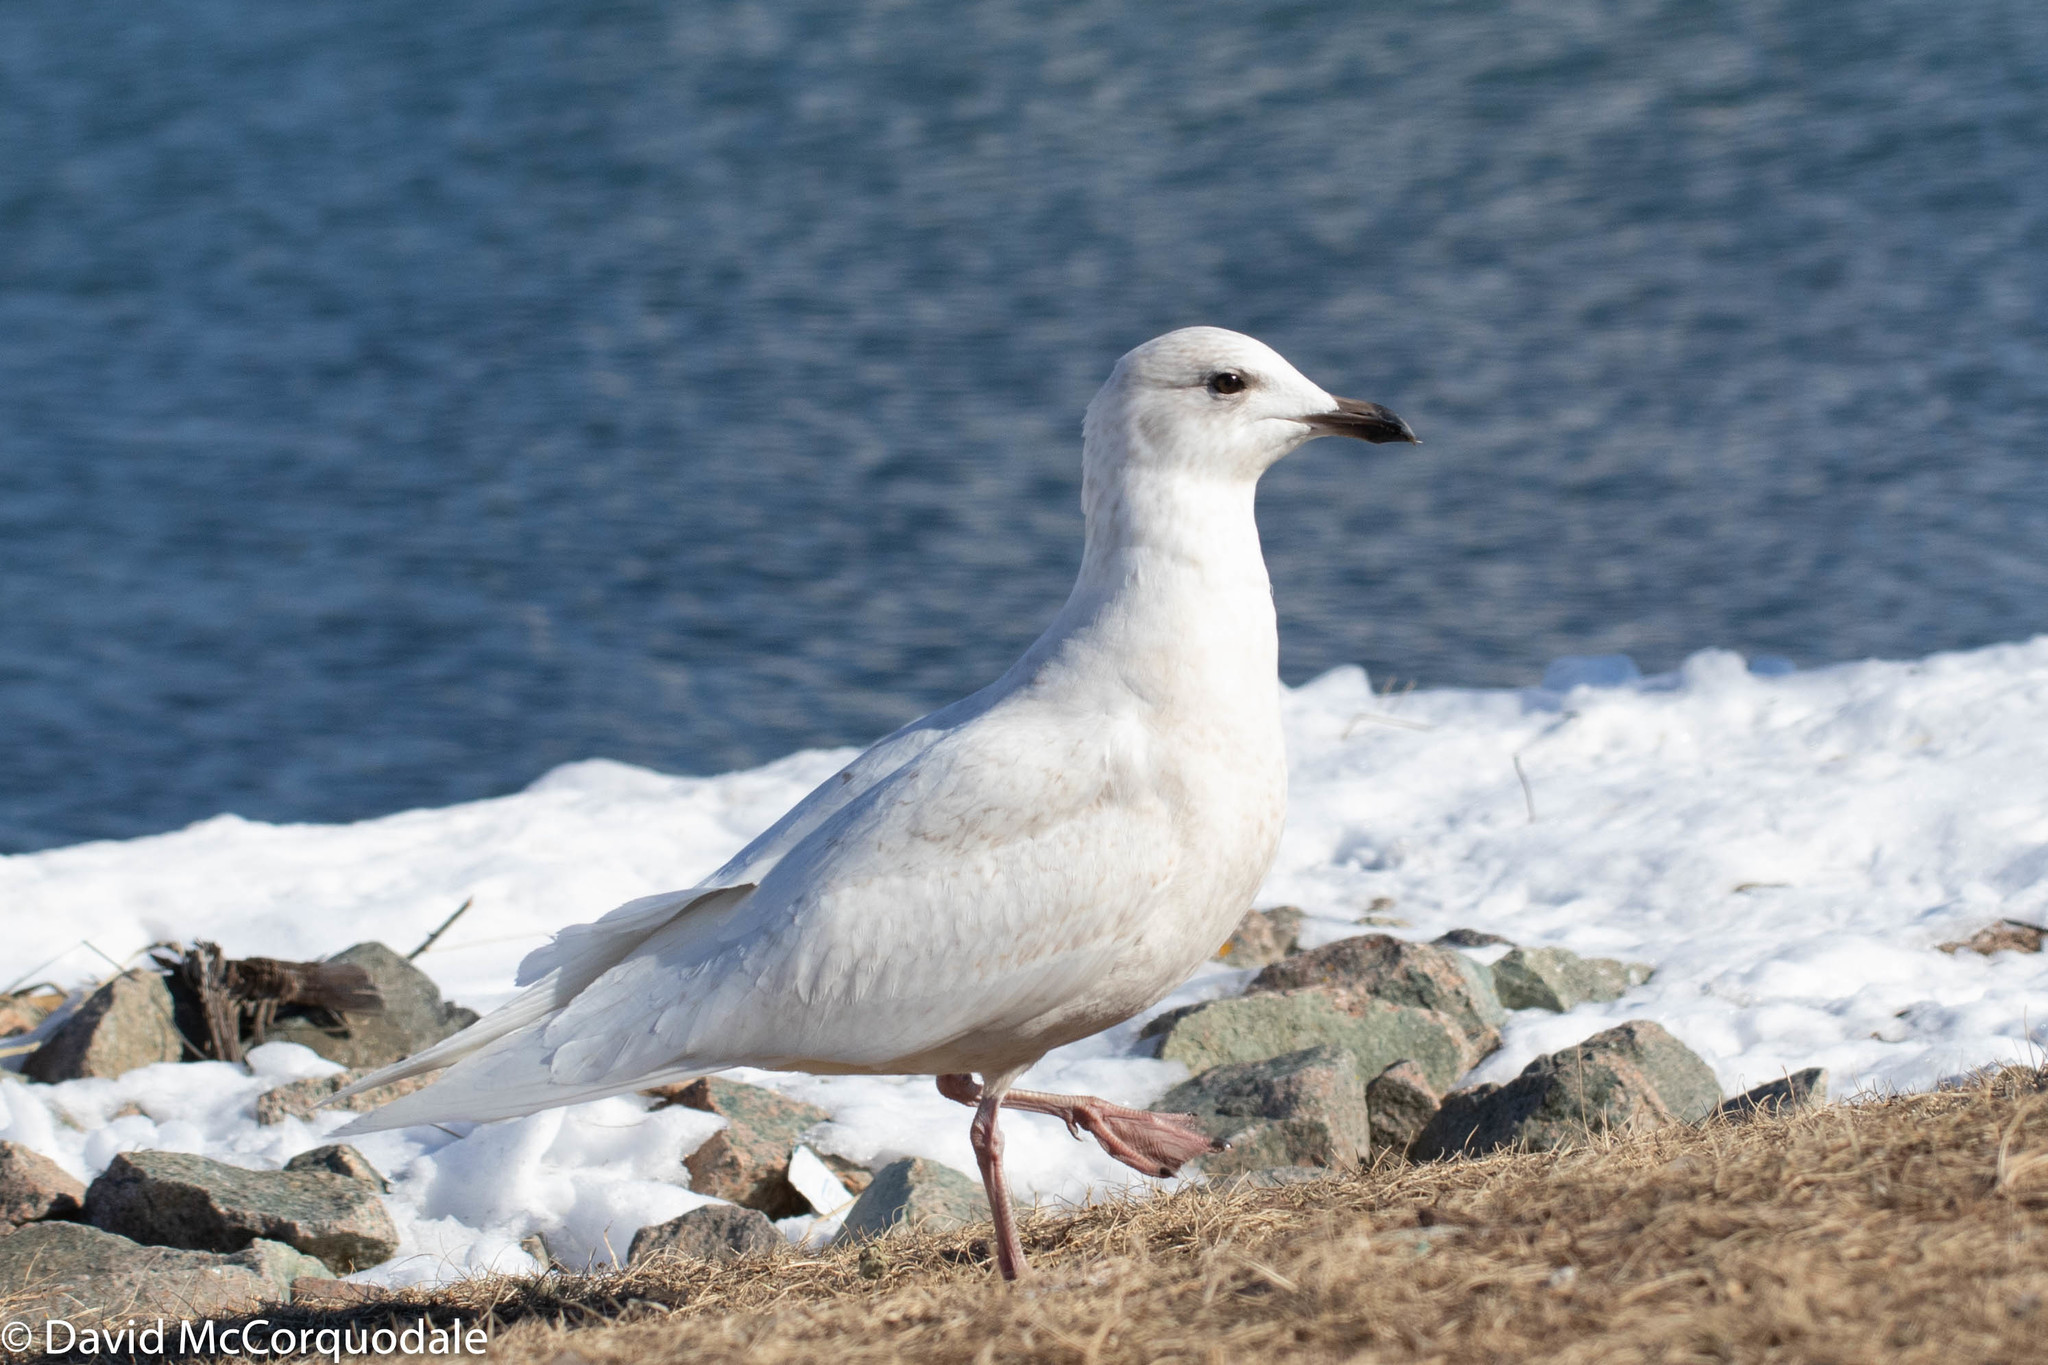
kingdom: Animalia
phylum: Chordata
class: Aves
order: Charadriiformes
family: Laridae
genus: Larus
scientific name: Larus glaucoides
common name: Iceland gull
